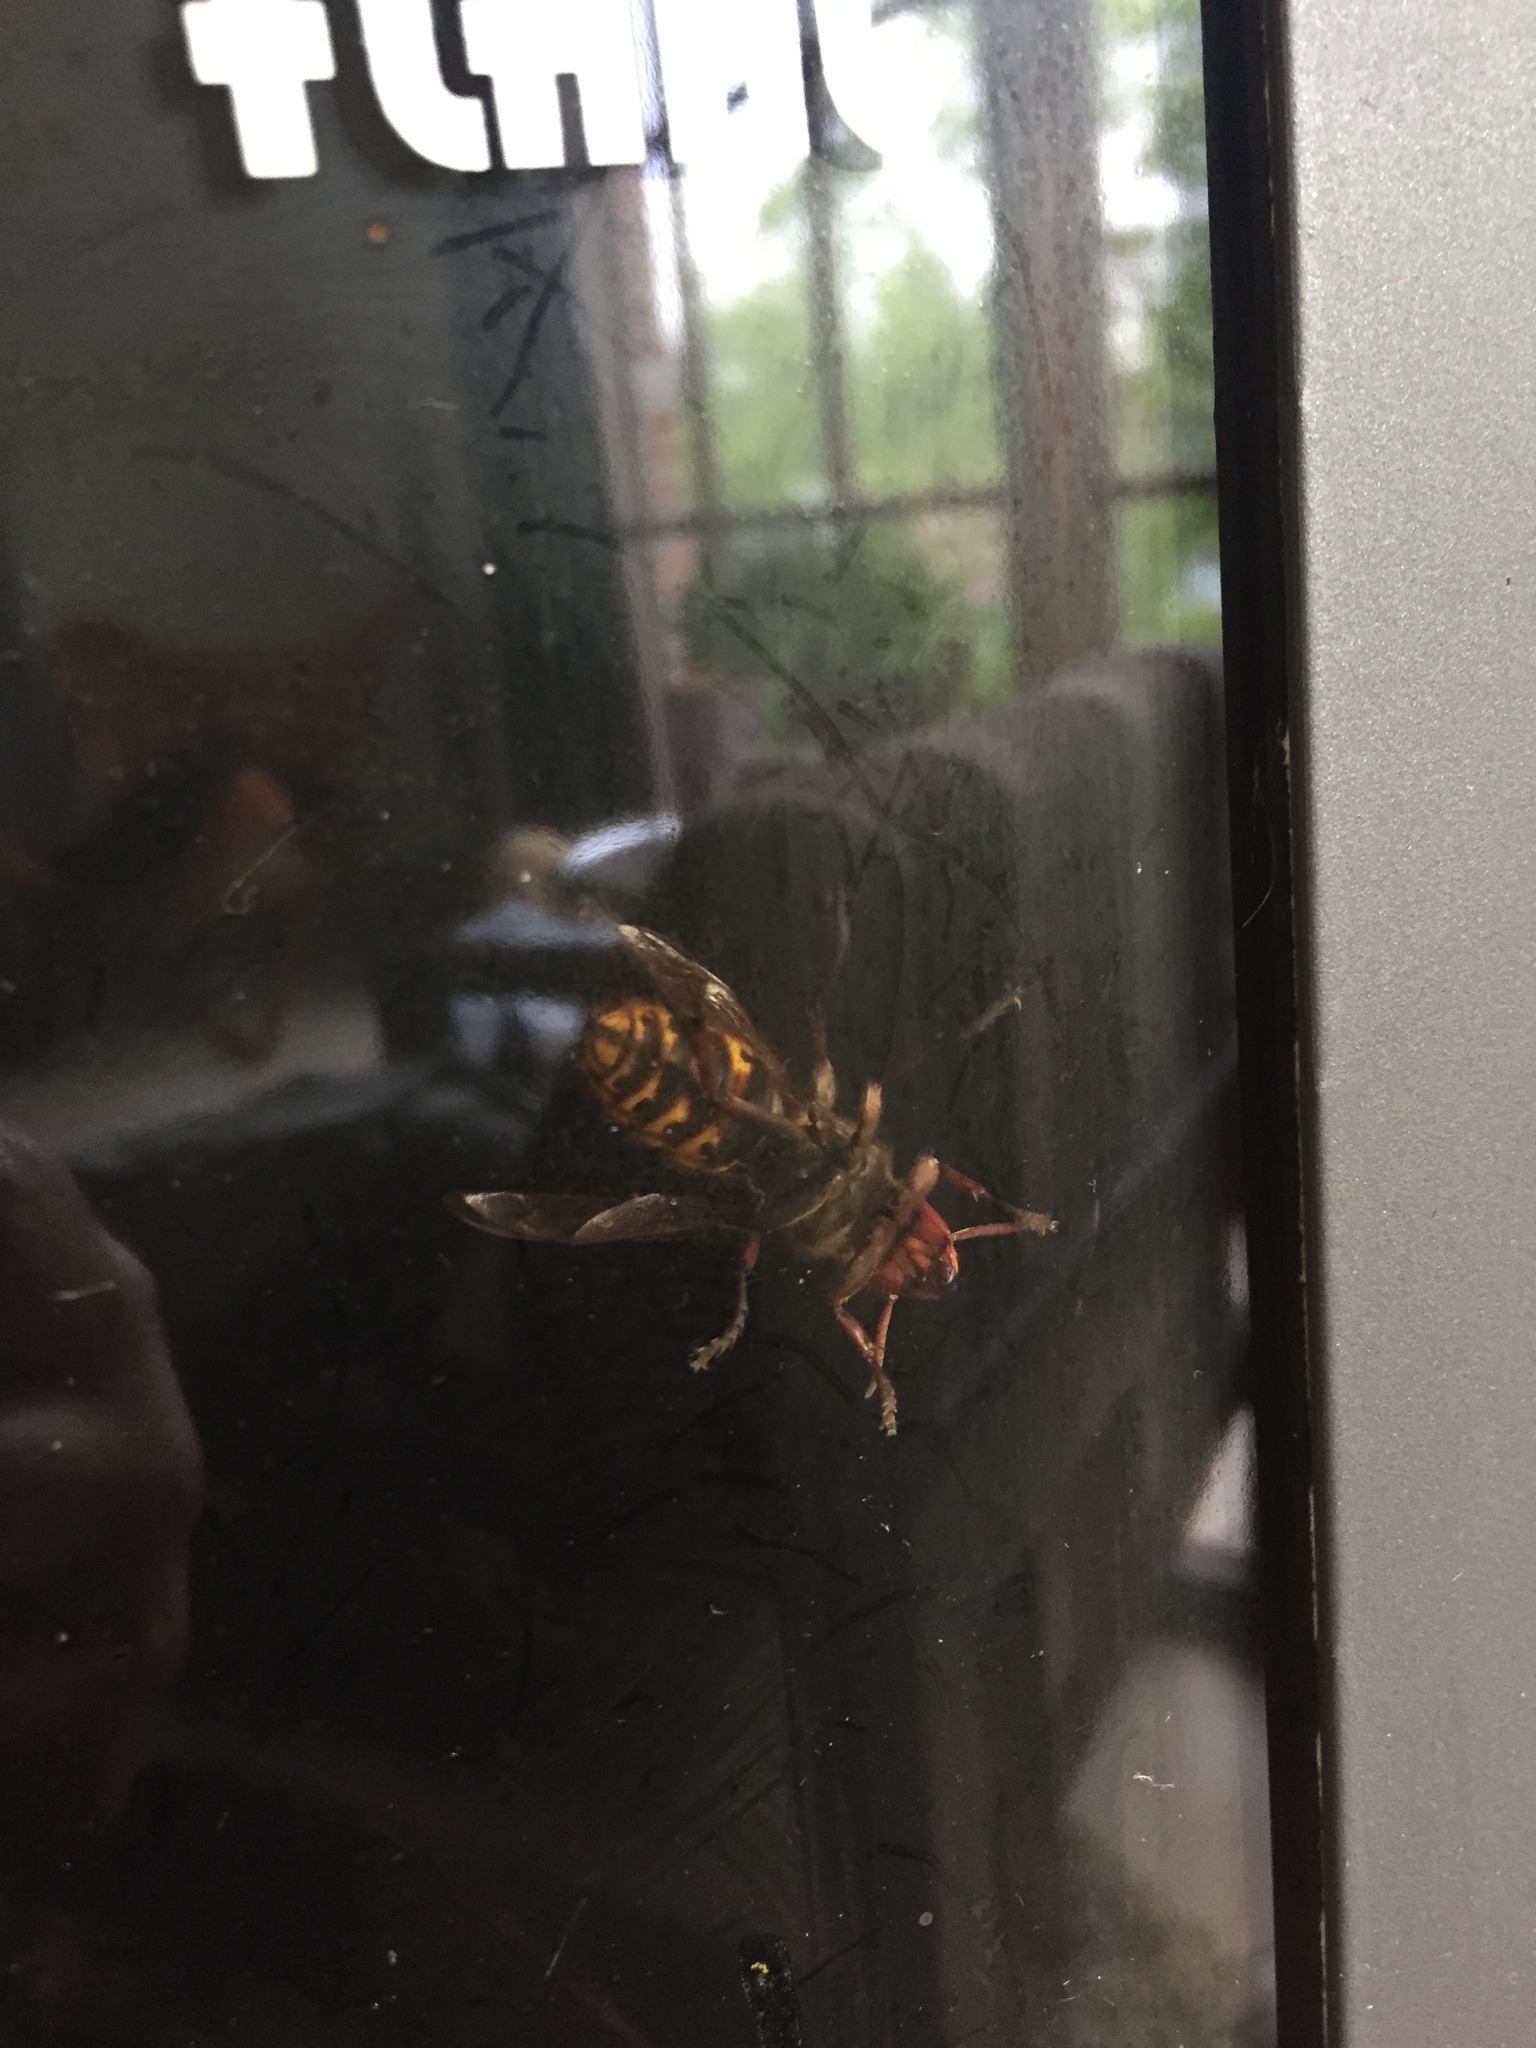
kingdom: Animalia
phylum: Arthropoda
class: Insecta
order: Hymenoptera
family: Vespidae
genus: Vespa
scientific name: Vespa crabro
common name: Hornet
